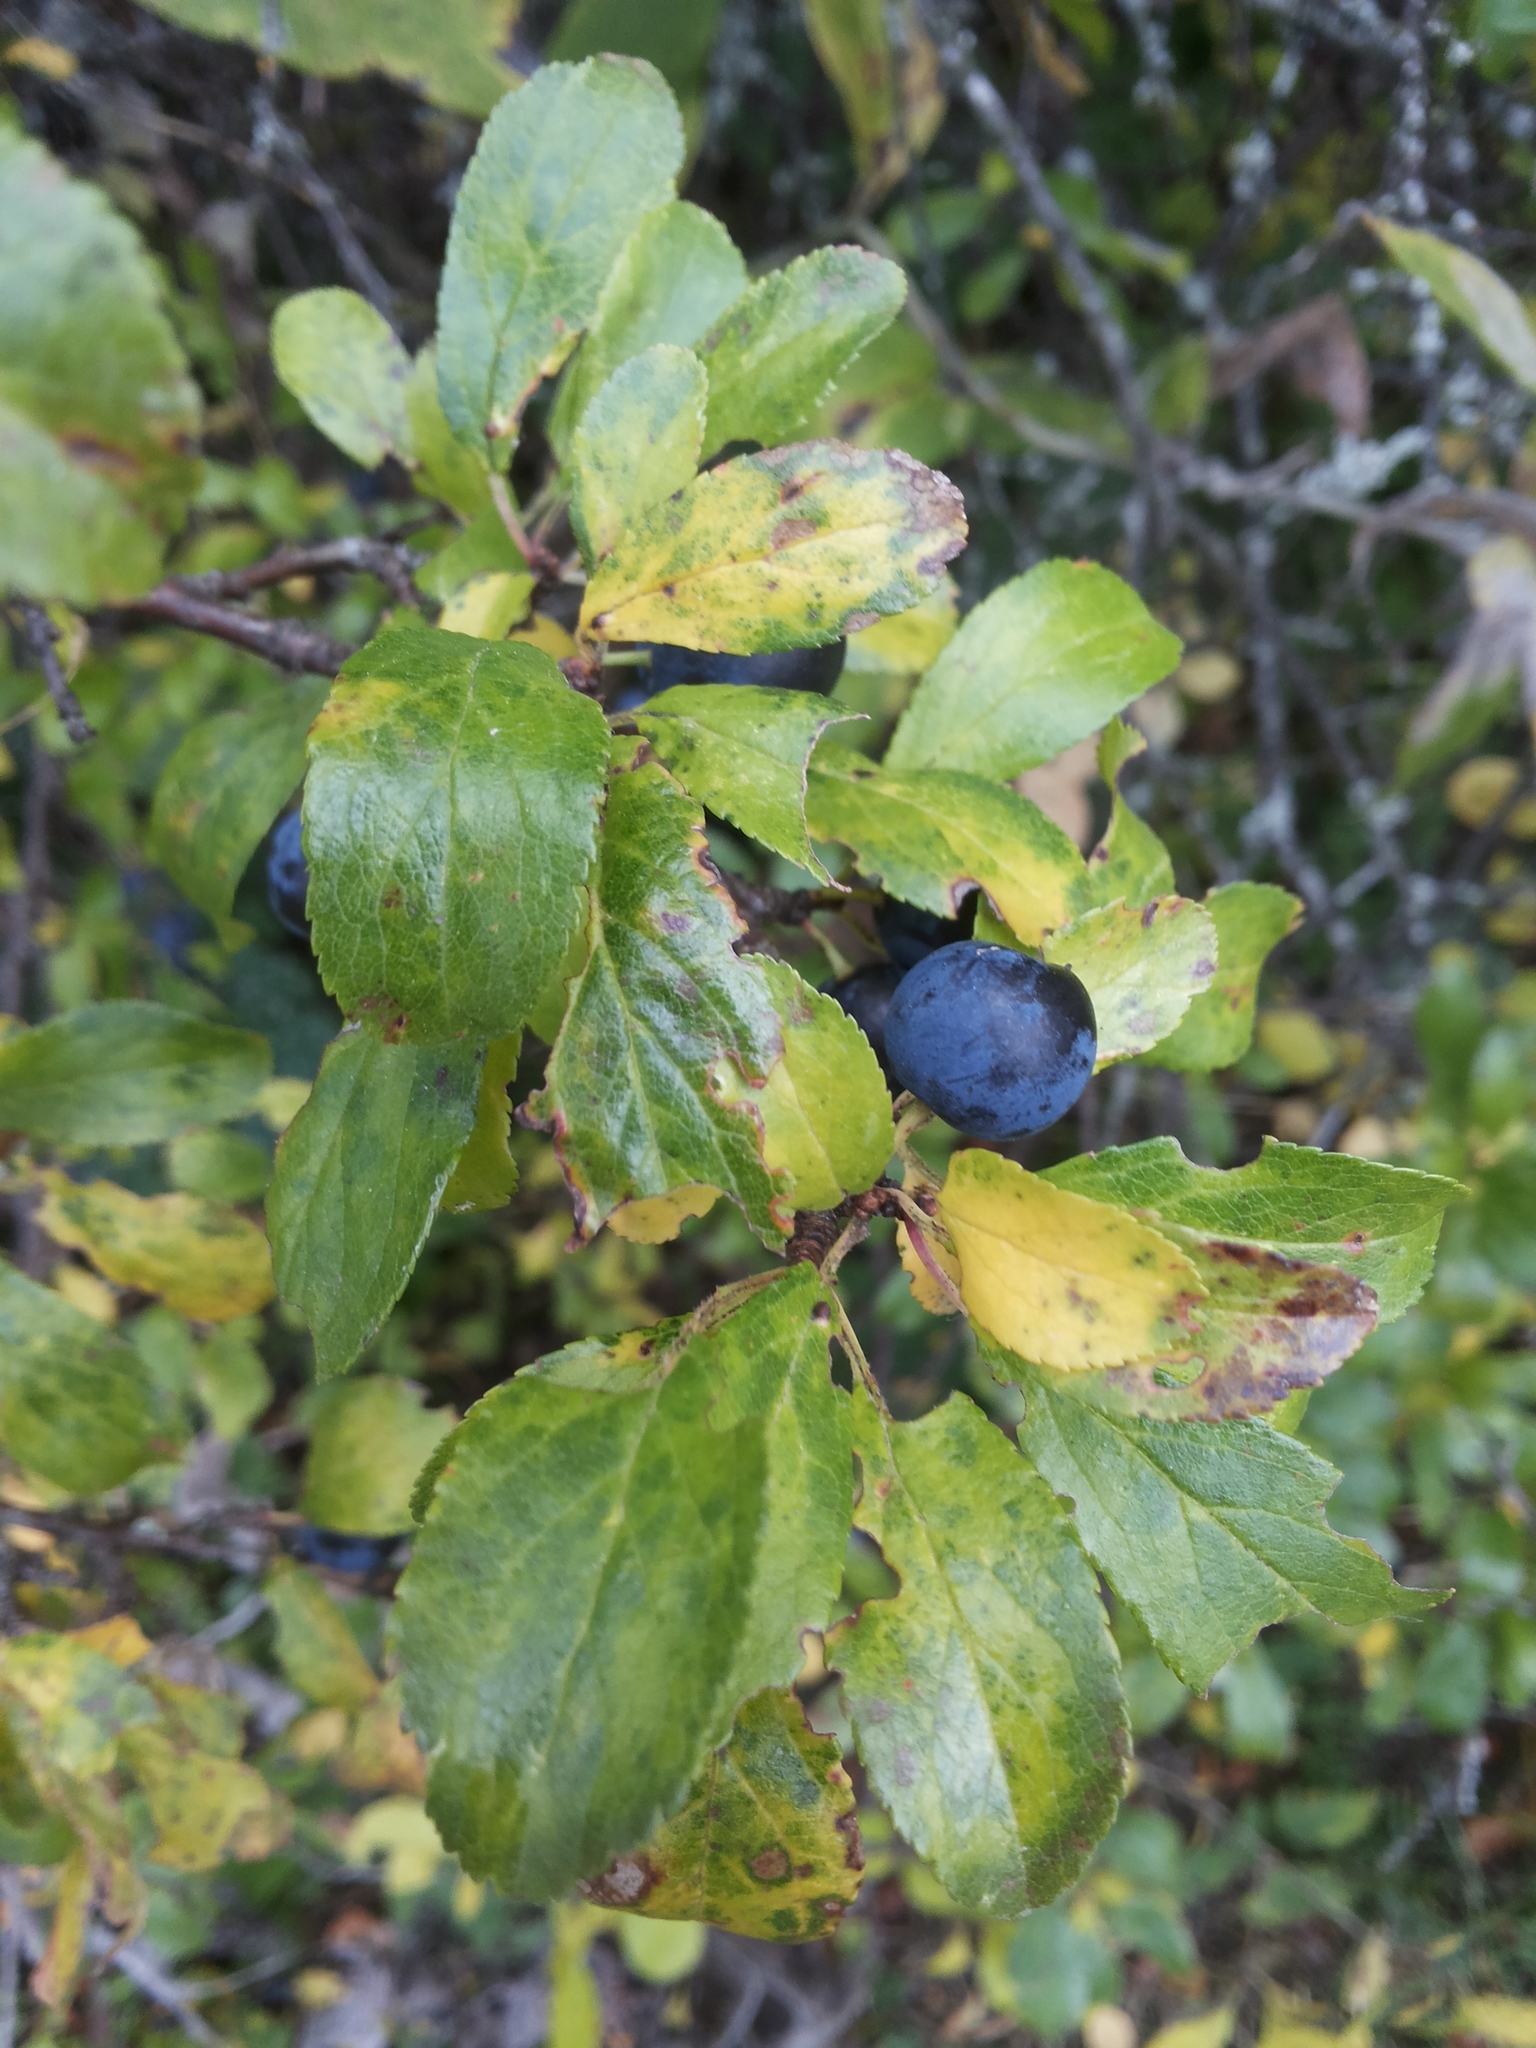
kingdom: Plantae
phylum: Tracheophyta
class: Magnoliopsida
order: Rosales
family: Rosaceae
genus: Prunus
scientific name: Prunus spinosa
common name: Blackthorn
